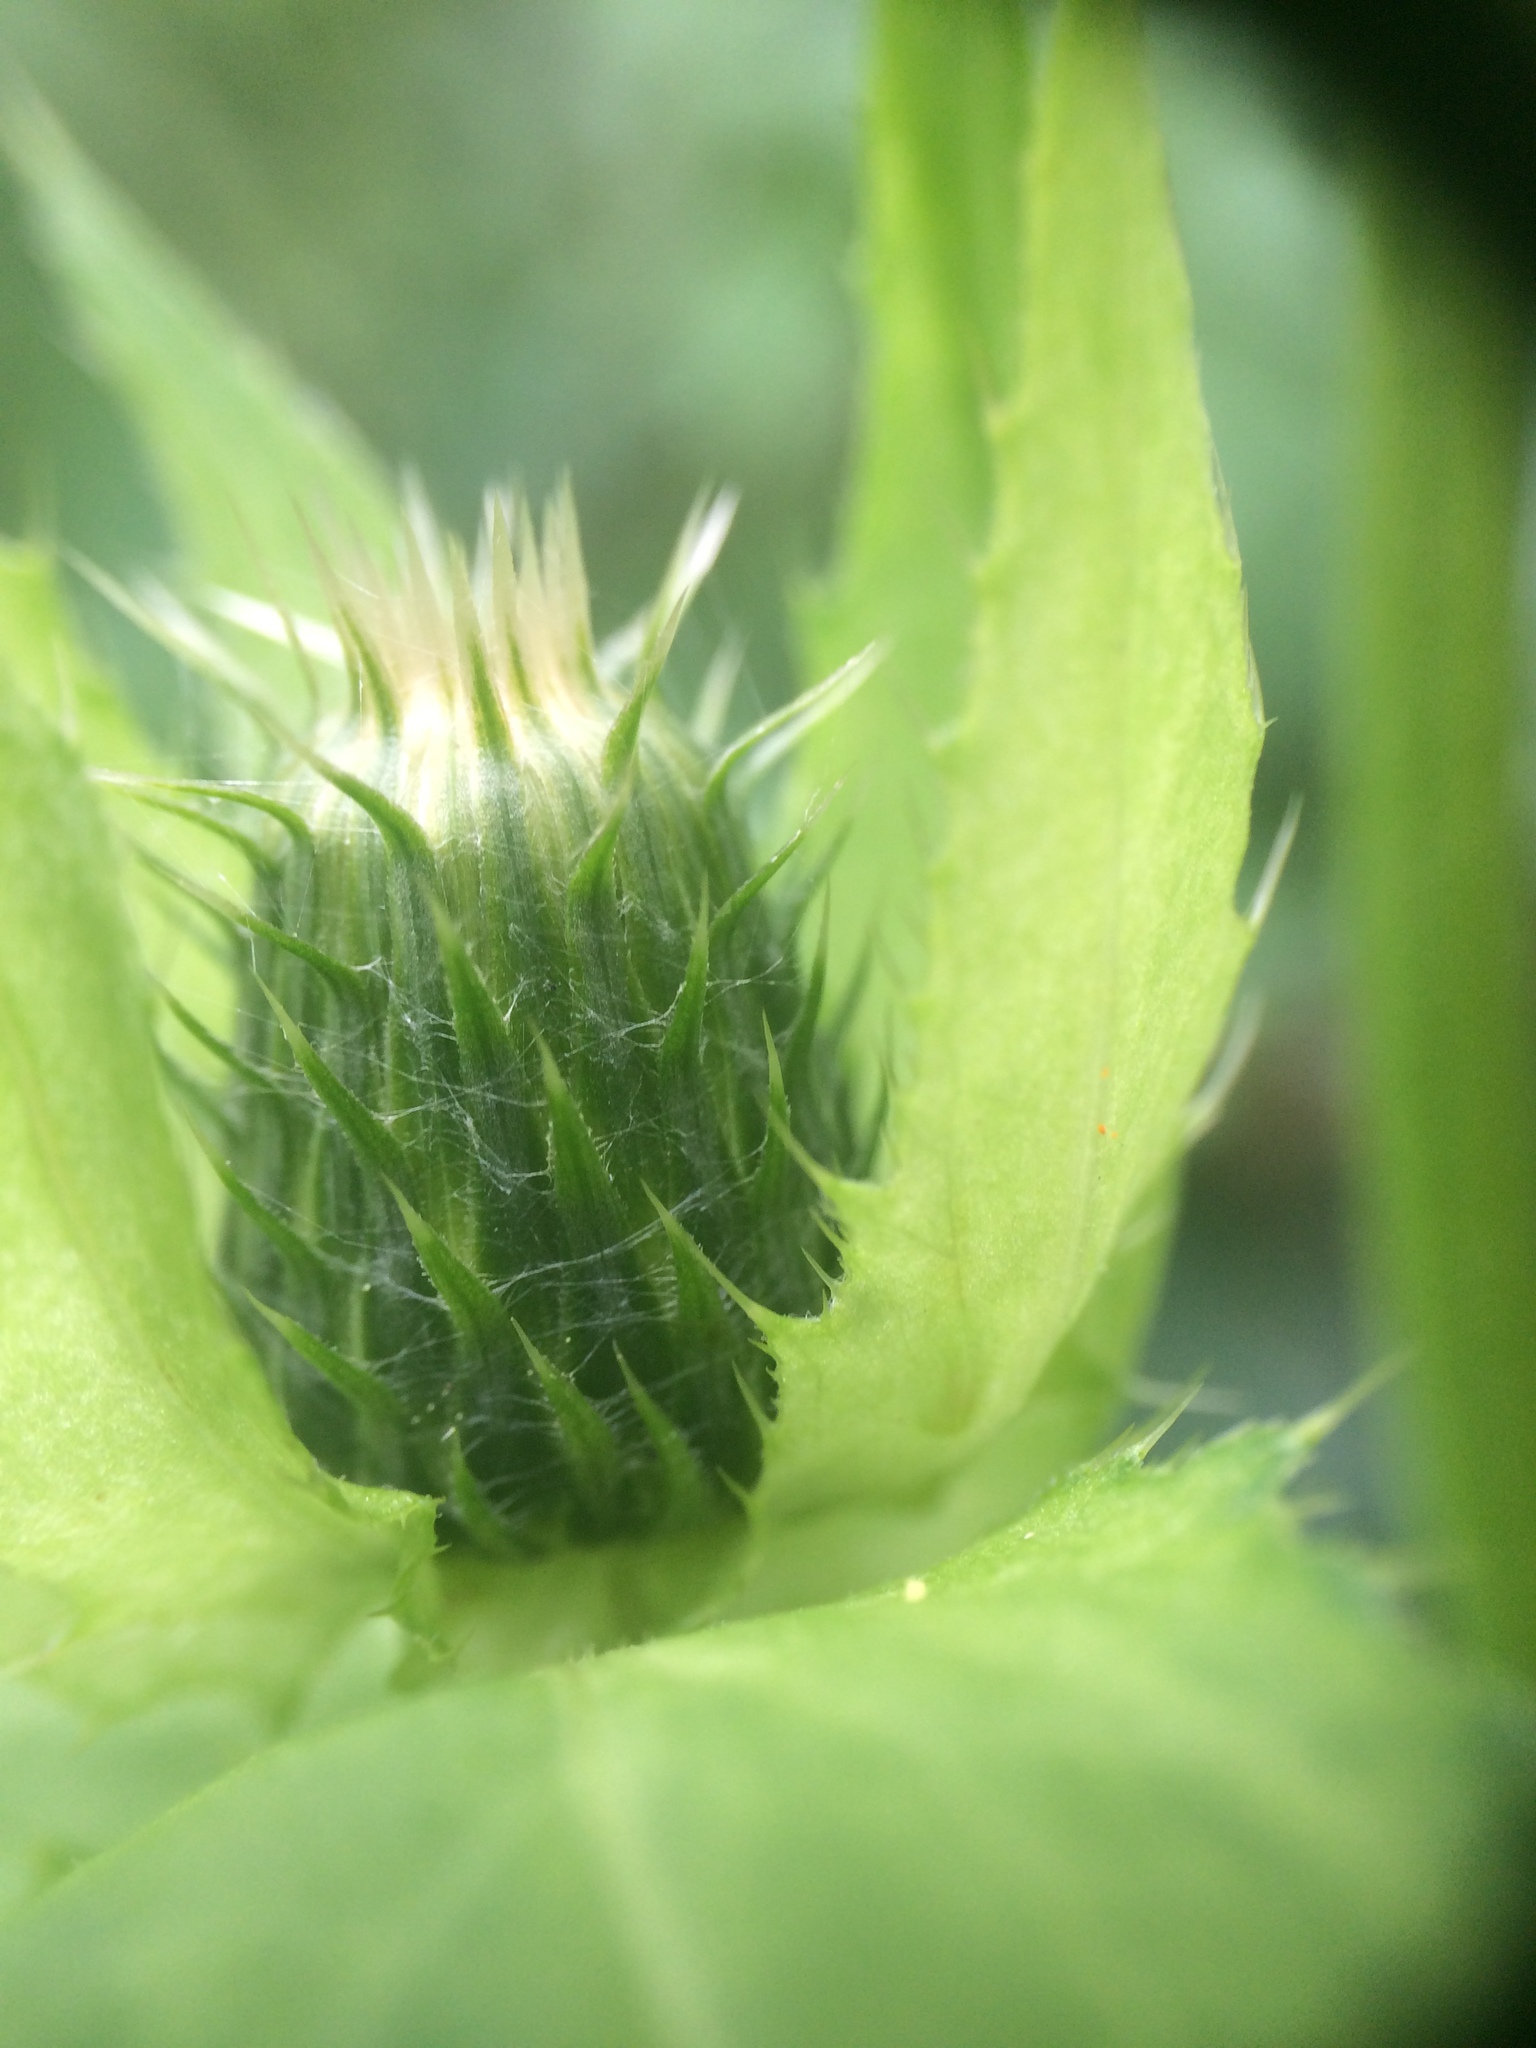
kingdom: Plantae
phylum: Tracheophyta
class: Magnoliopsida
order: Asterales
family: Asteraceae
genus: Cirsium
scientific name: Cirsium oleraceum
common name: Cabbage thistle
